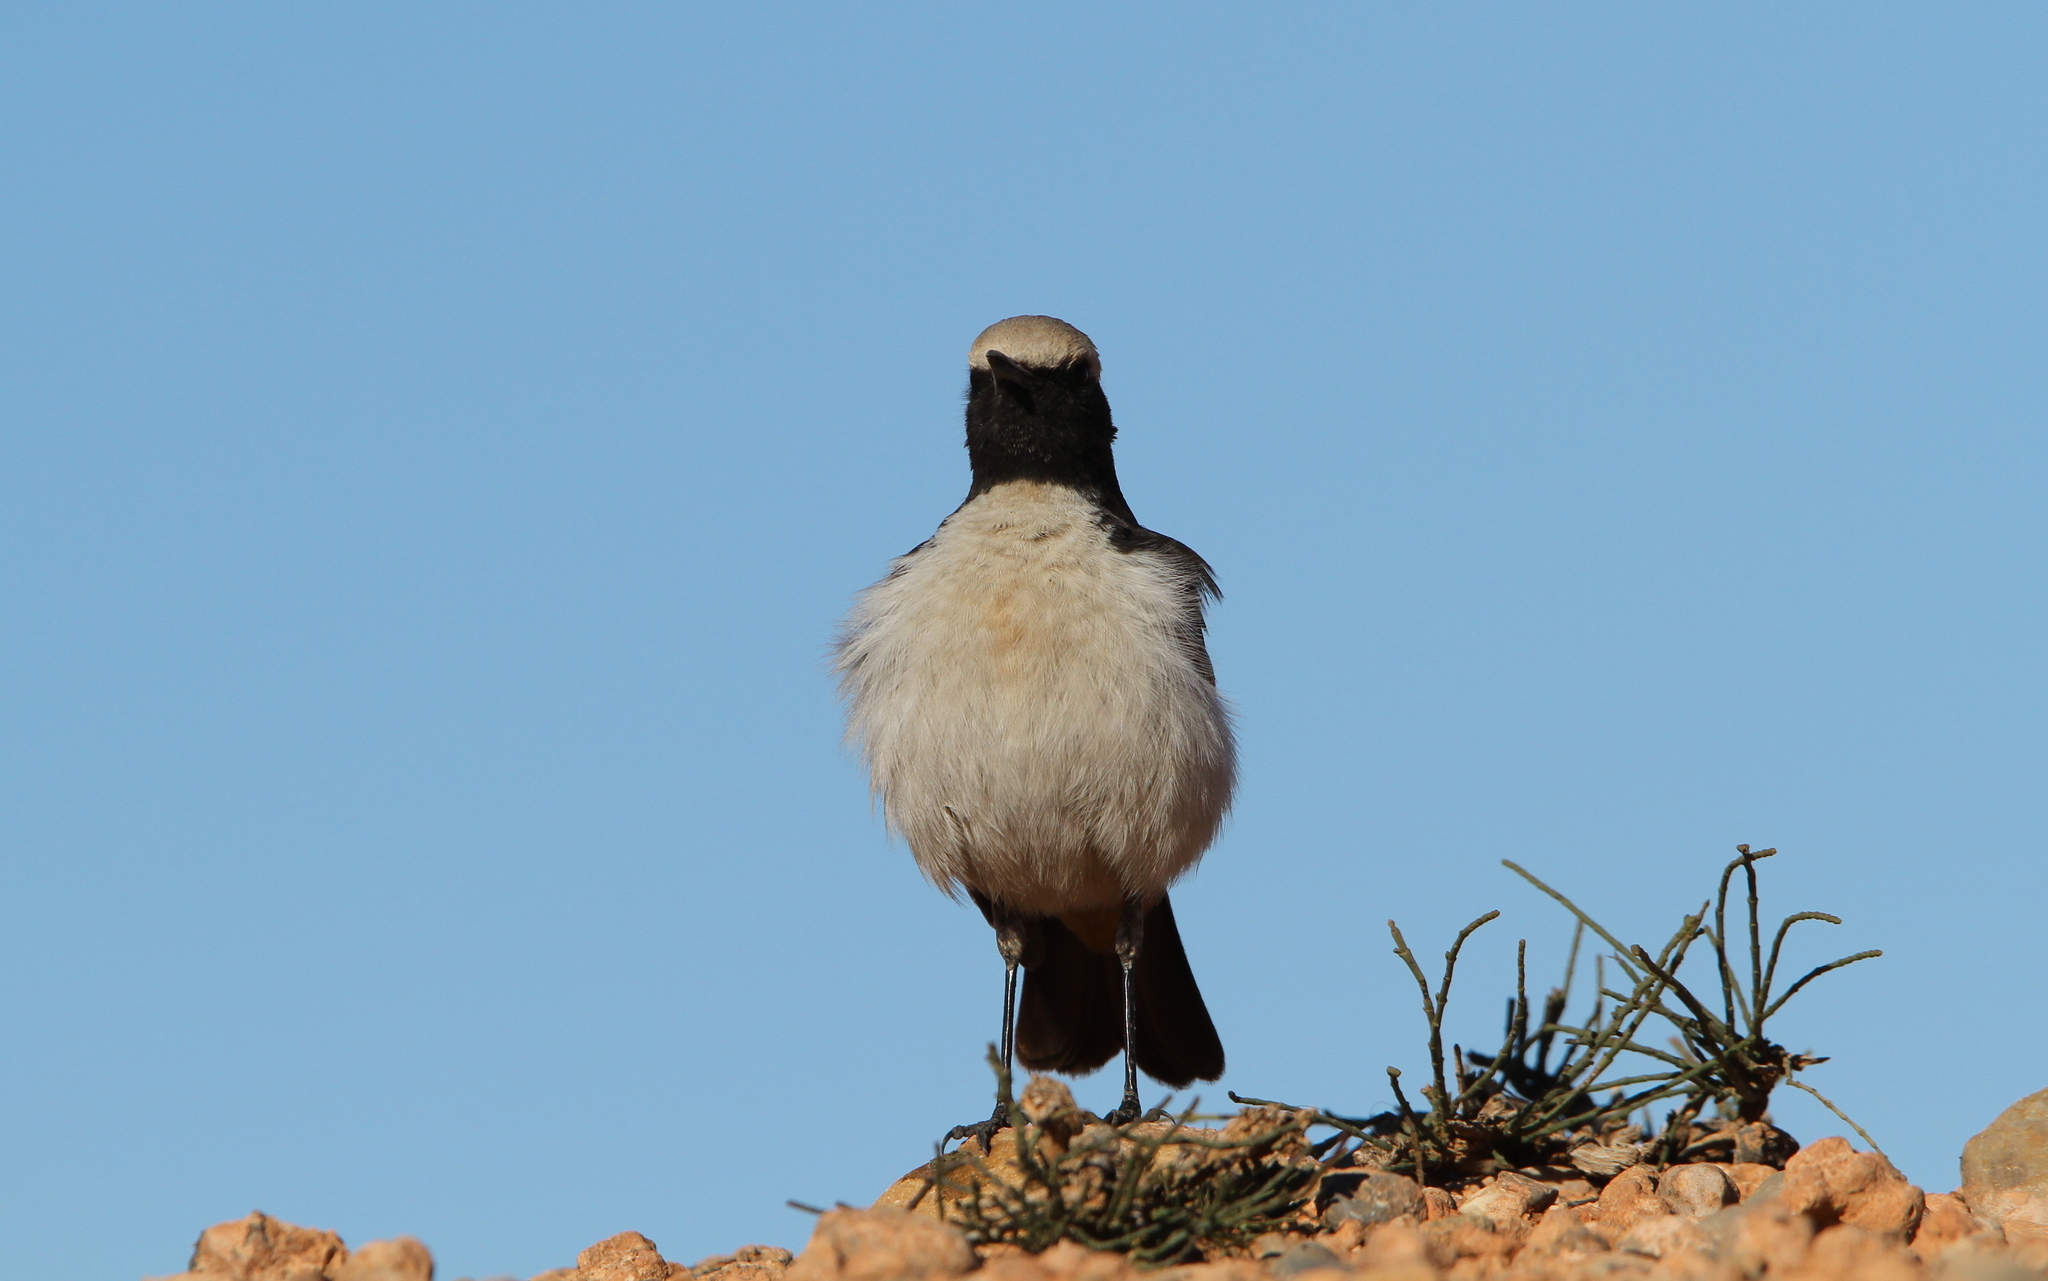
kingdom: Animalia
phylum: Chordata
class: Aves
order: Passeriformes
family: Muscicapidae
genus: Oenanthe
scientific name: Oenanthe moesta
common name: Red-rumped wheatear
